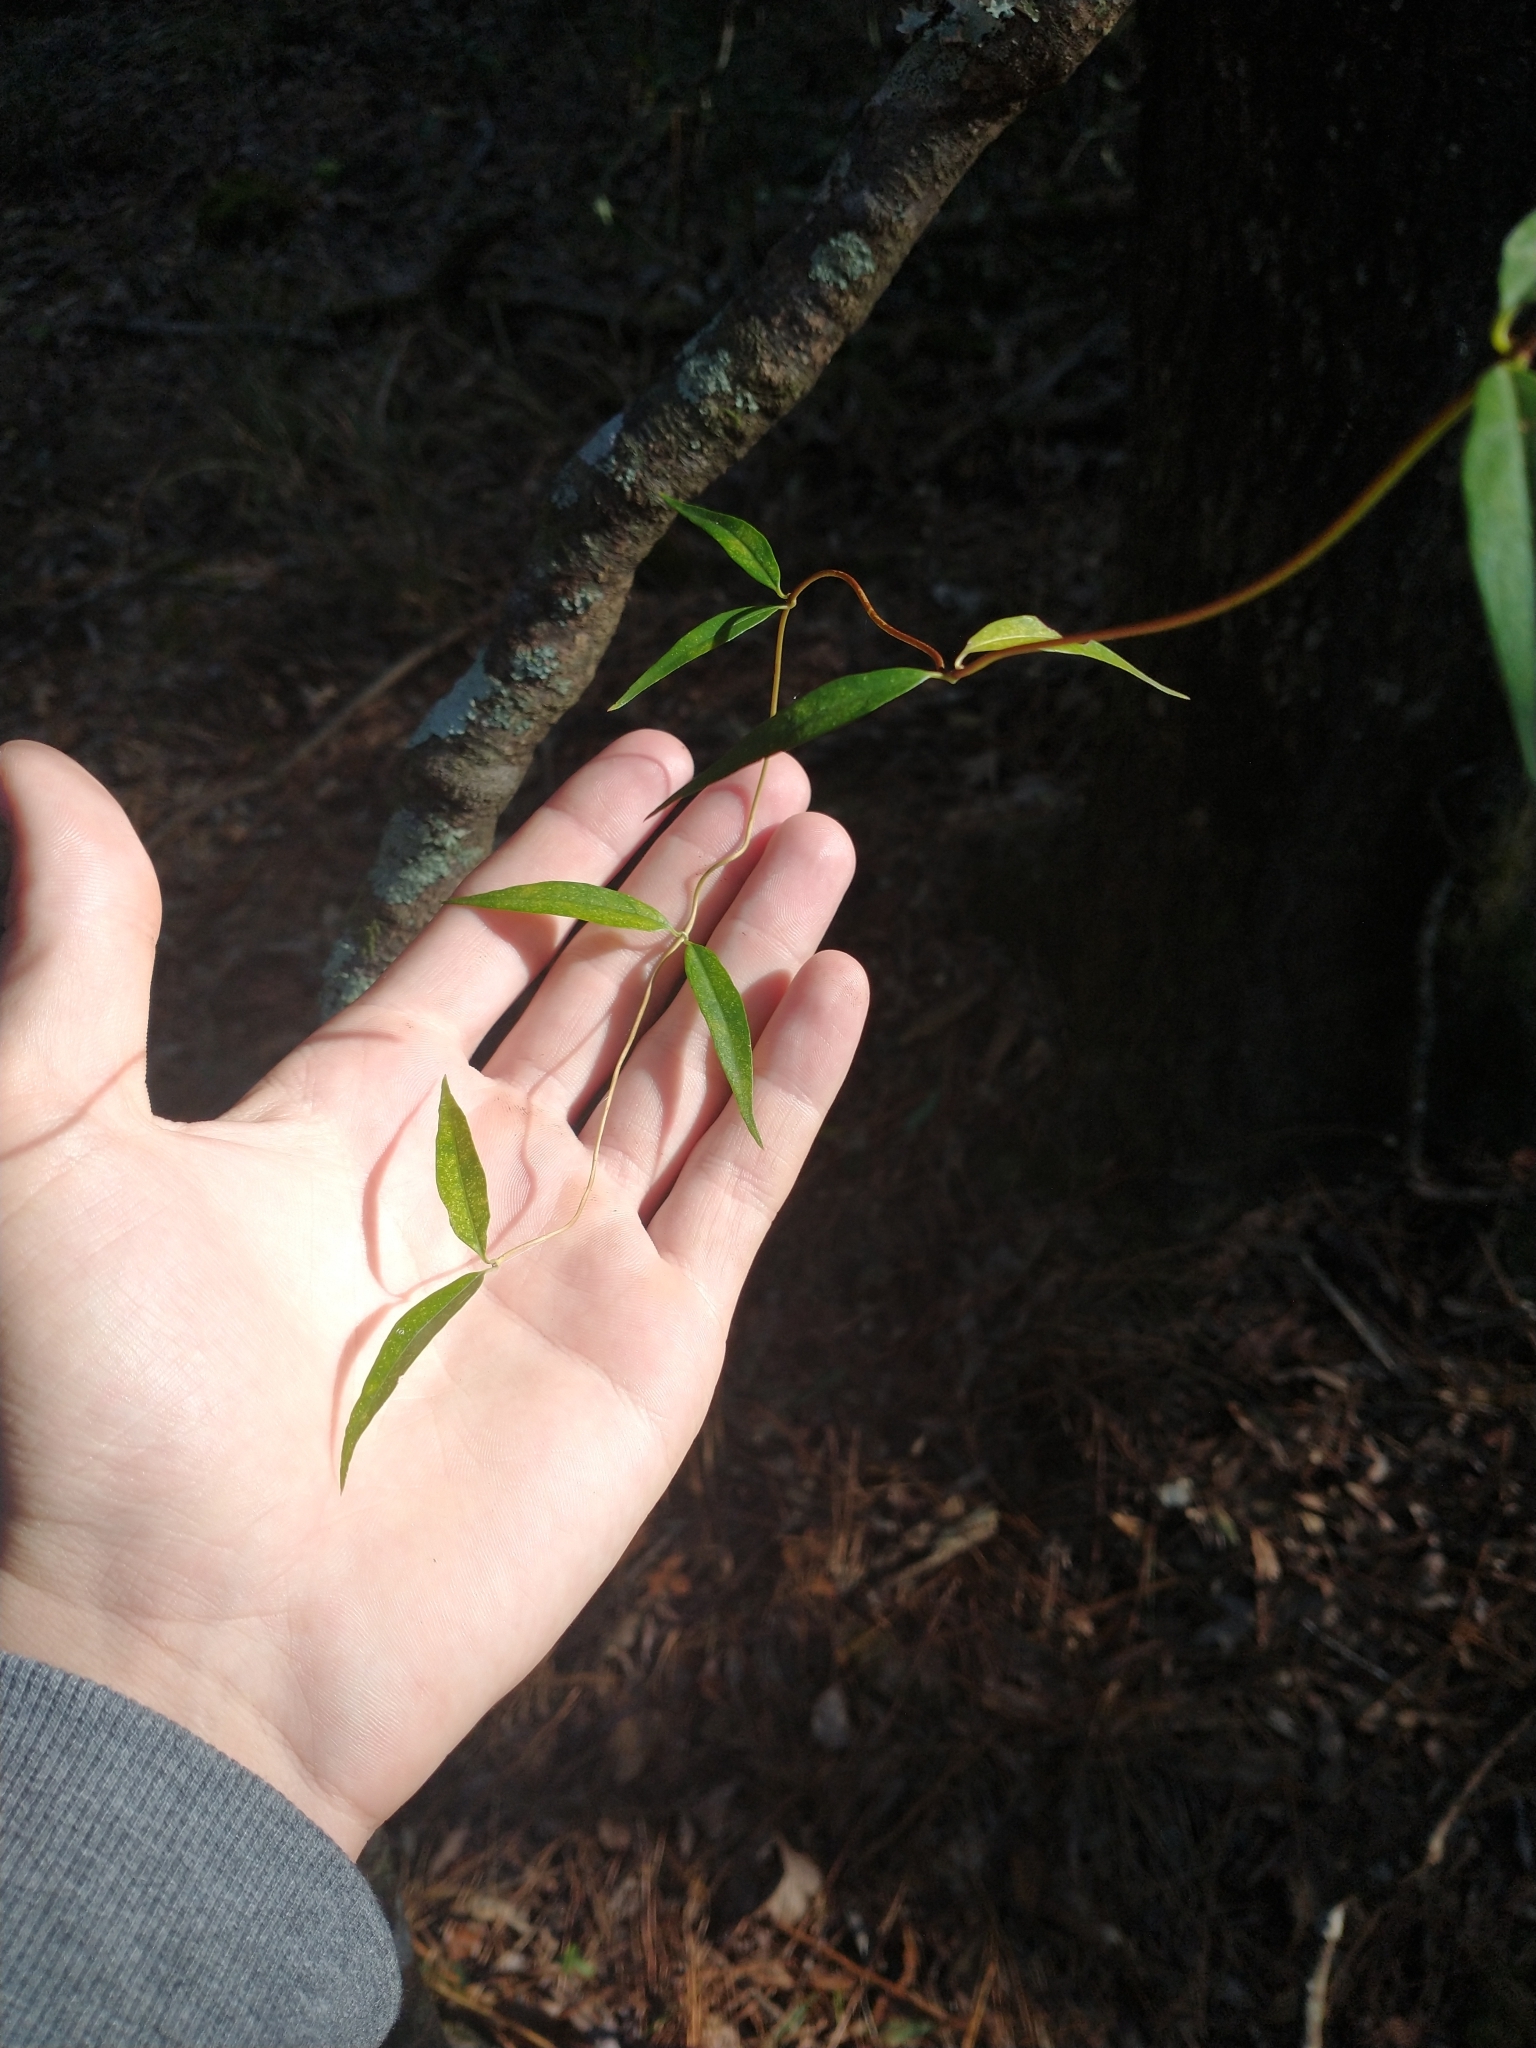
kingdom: Plantae
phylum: Tracheophyta
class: Magnoliopsida
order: Gentianales
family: Gelsemiaceae
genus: Gelsemium
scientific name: Gelsemium sempervirens
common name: Carolina-jasmine
